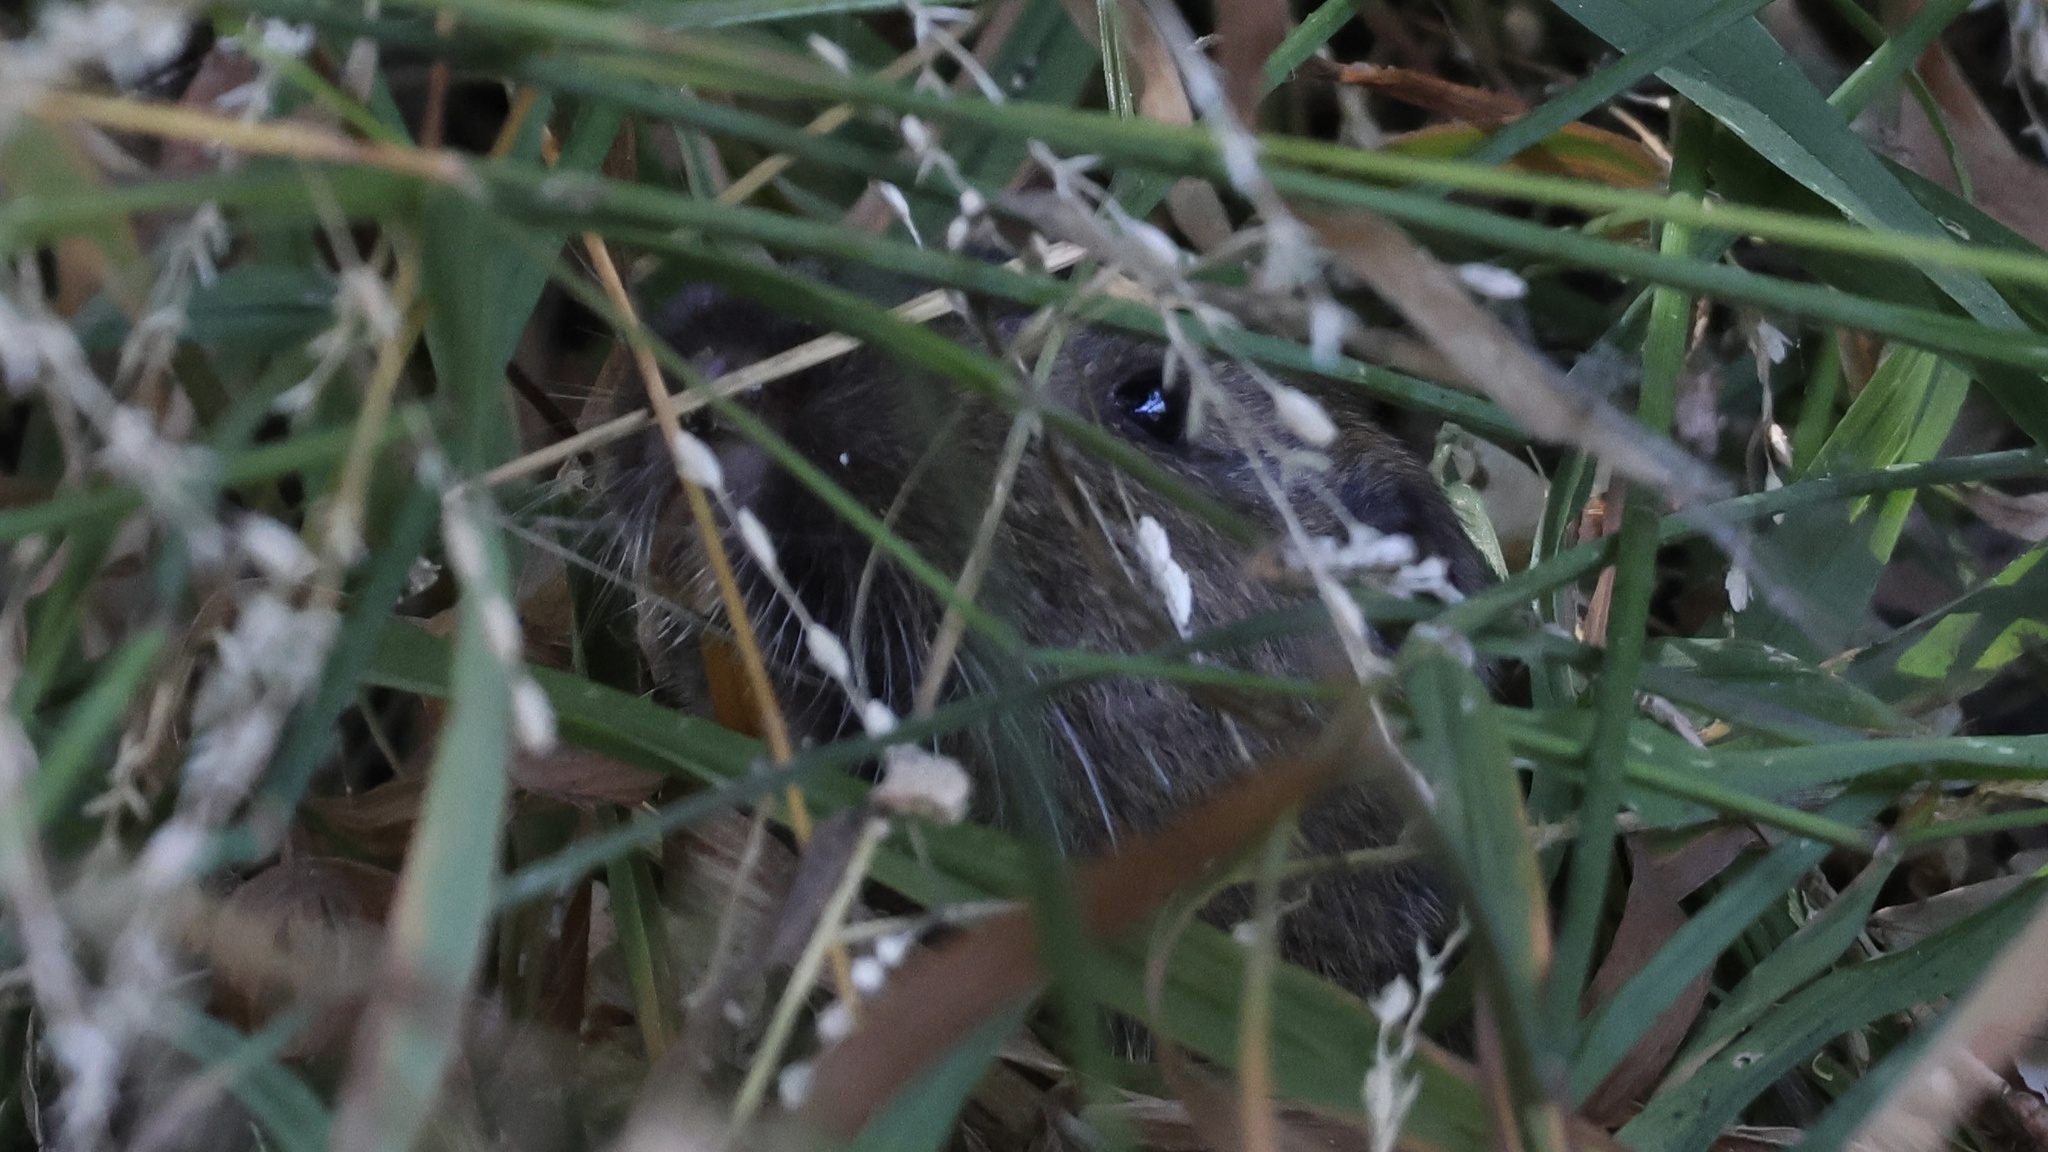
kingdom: Animalia
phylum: Chordata
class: Mammalia
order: Rodentia
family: Geomyidae
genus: Thomomys
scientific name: Thomomys bottae
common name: Botta's pocket gopher
